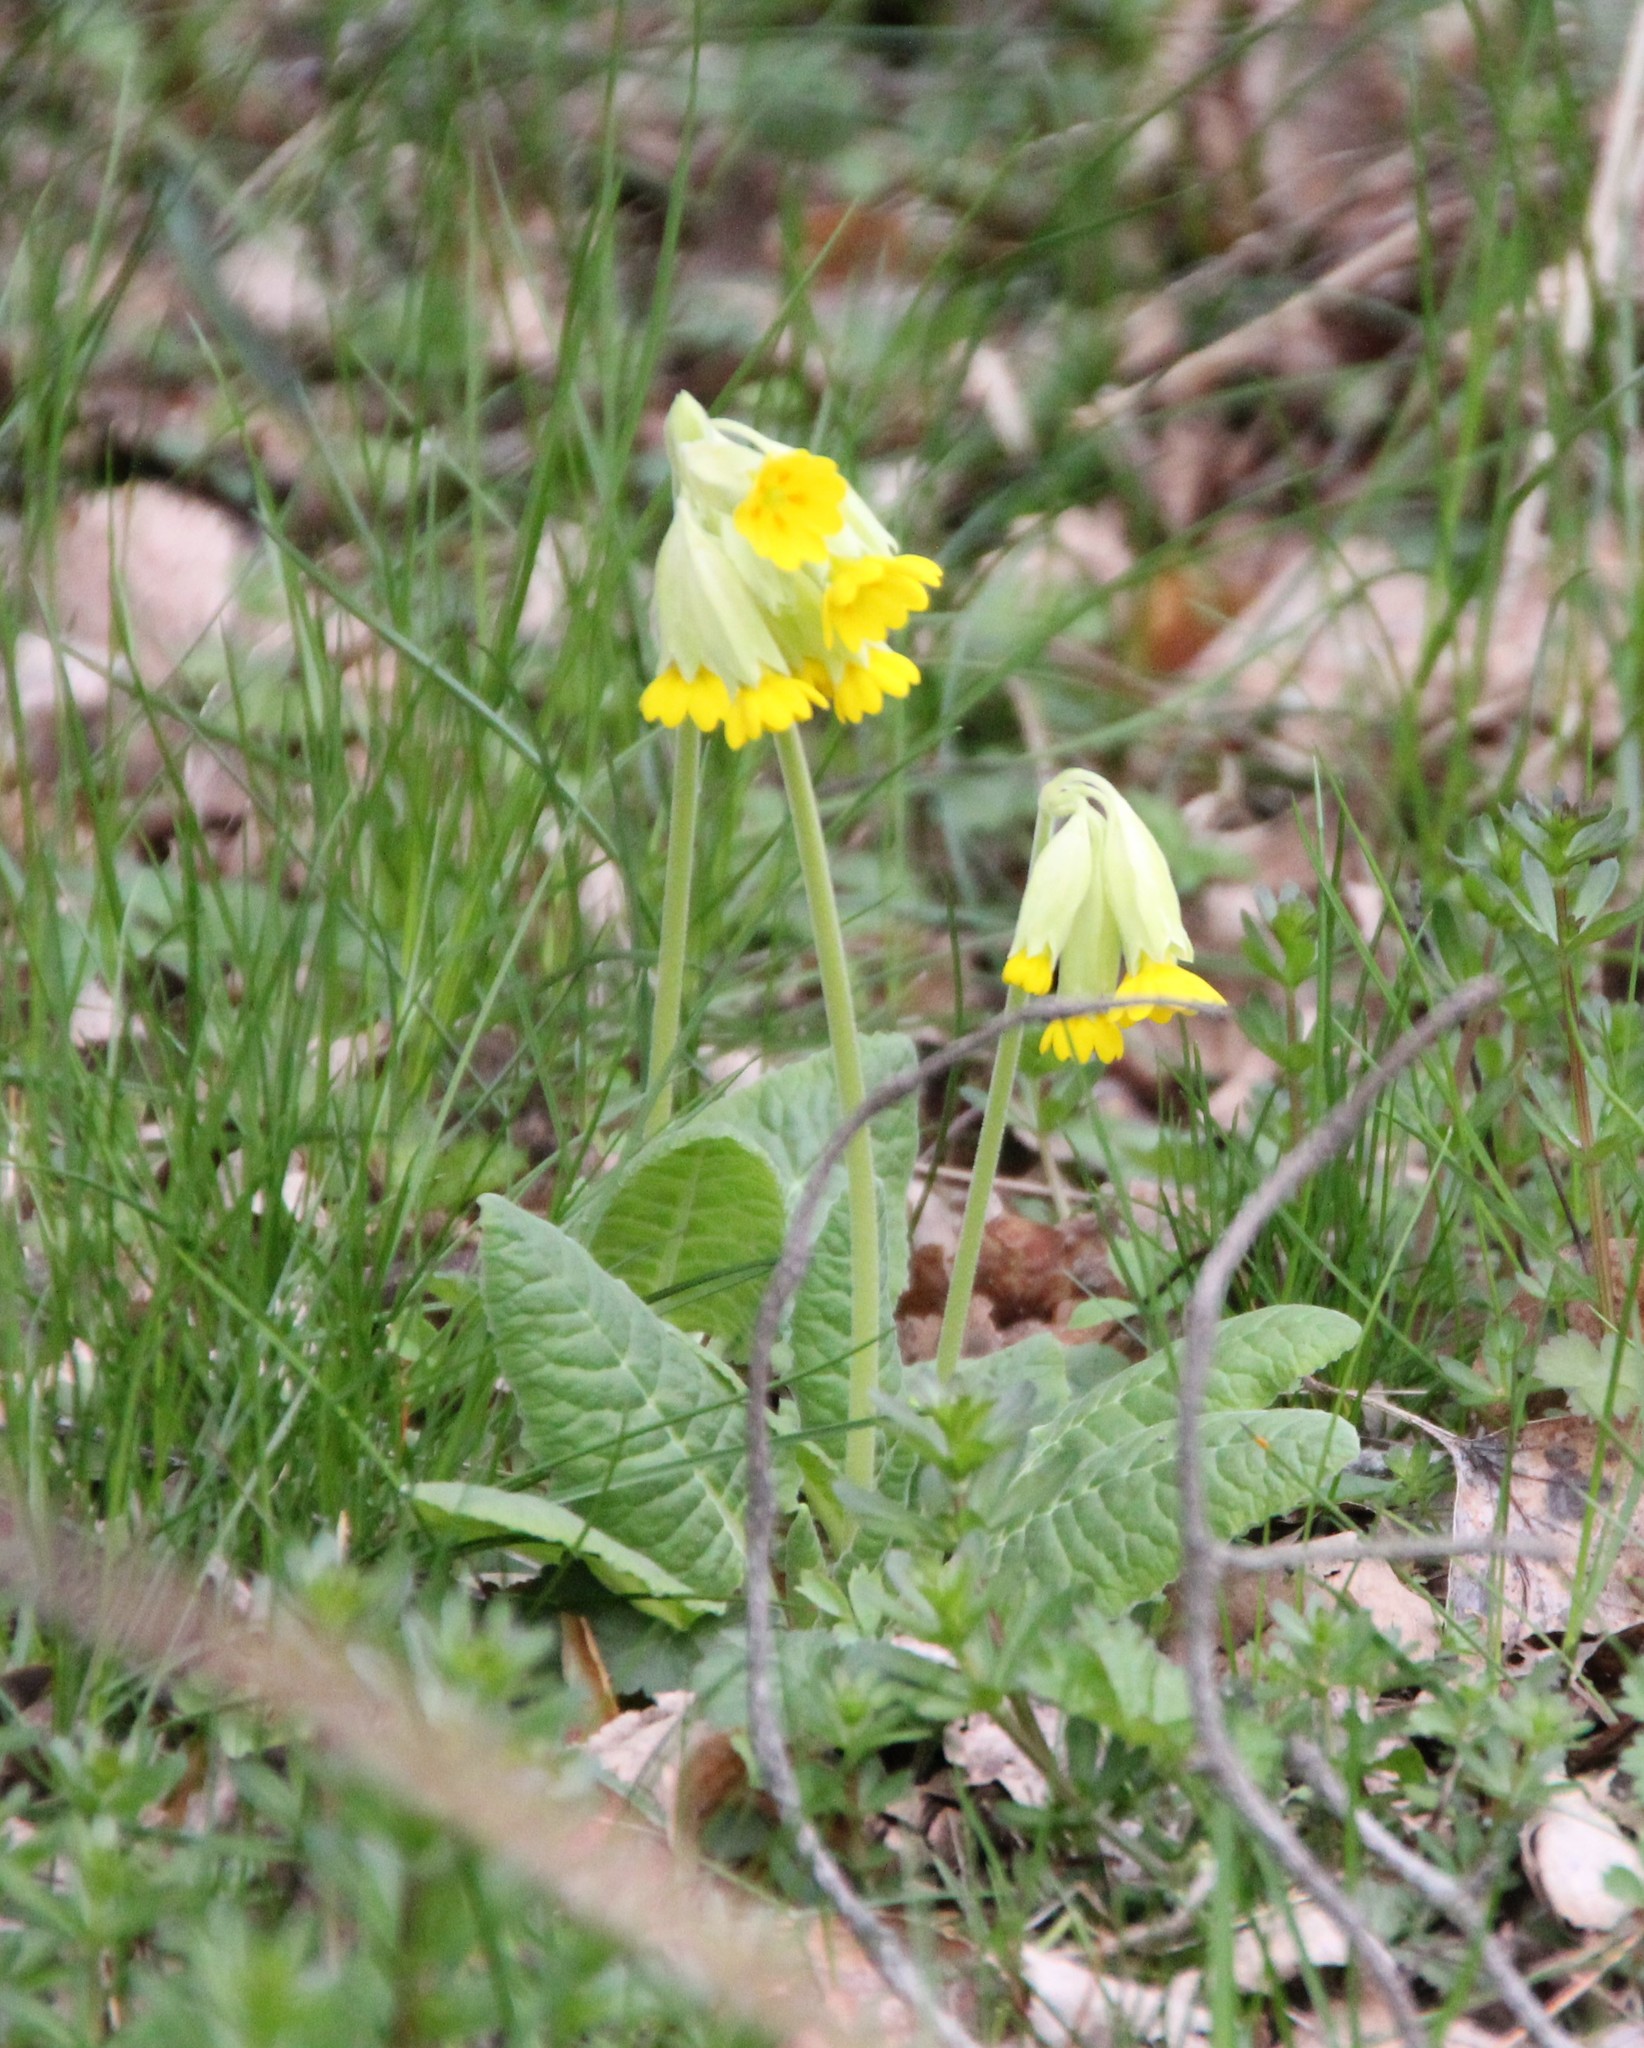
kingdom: Plantae
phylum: Tracheophyta
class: Magnoliopsida
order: Ericales
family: Primulaceae
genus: Primula
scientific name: Primula veris
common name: Cowslip
